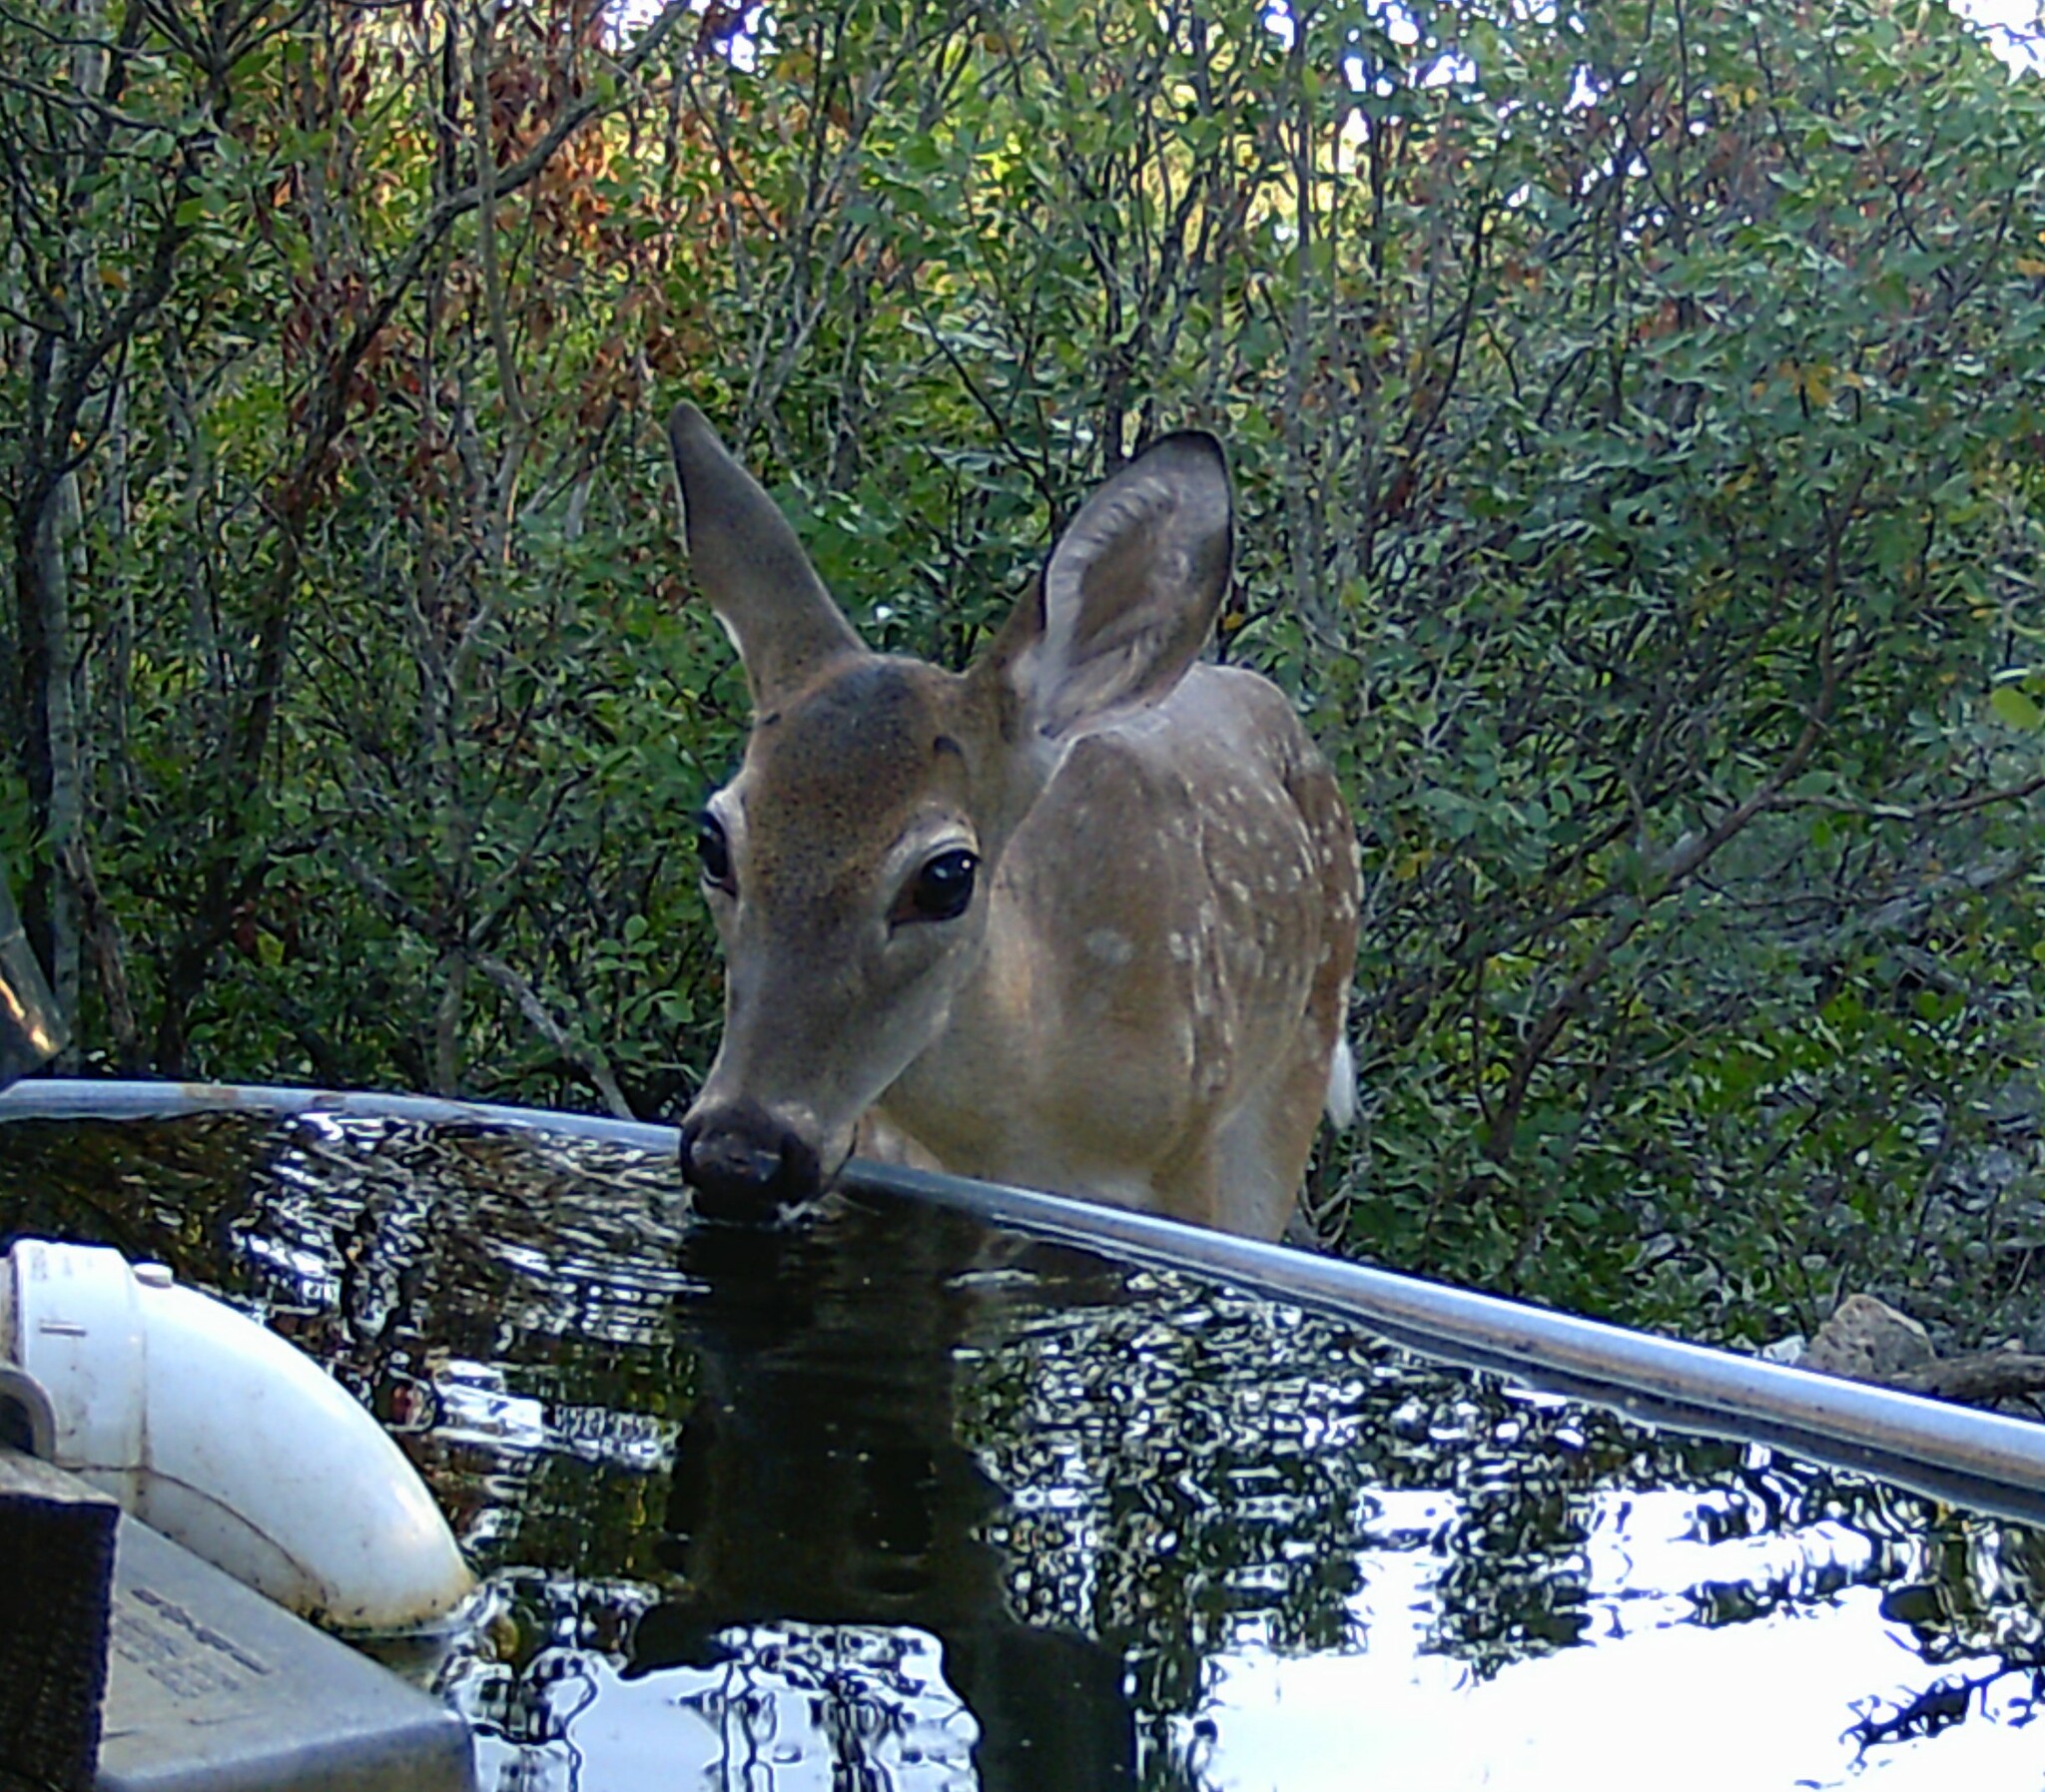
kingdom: Animalia
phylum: Chordata
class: Mammalia
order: Artiodactyla
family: Cervidae
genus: Odocoileus
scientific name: Odocoileus virginianus
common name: White-tailed deer
